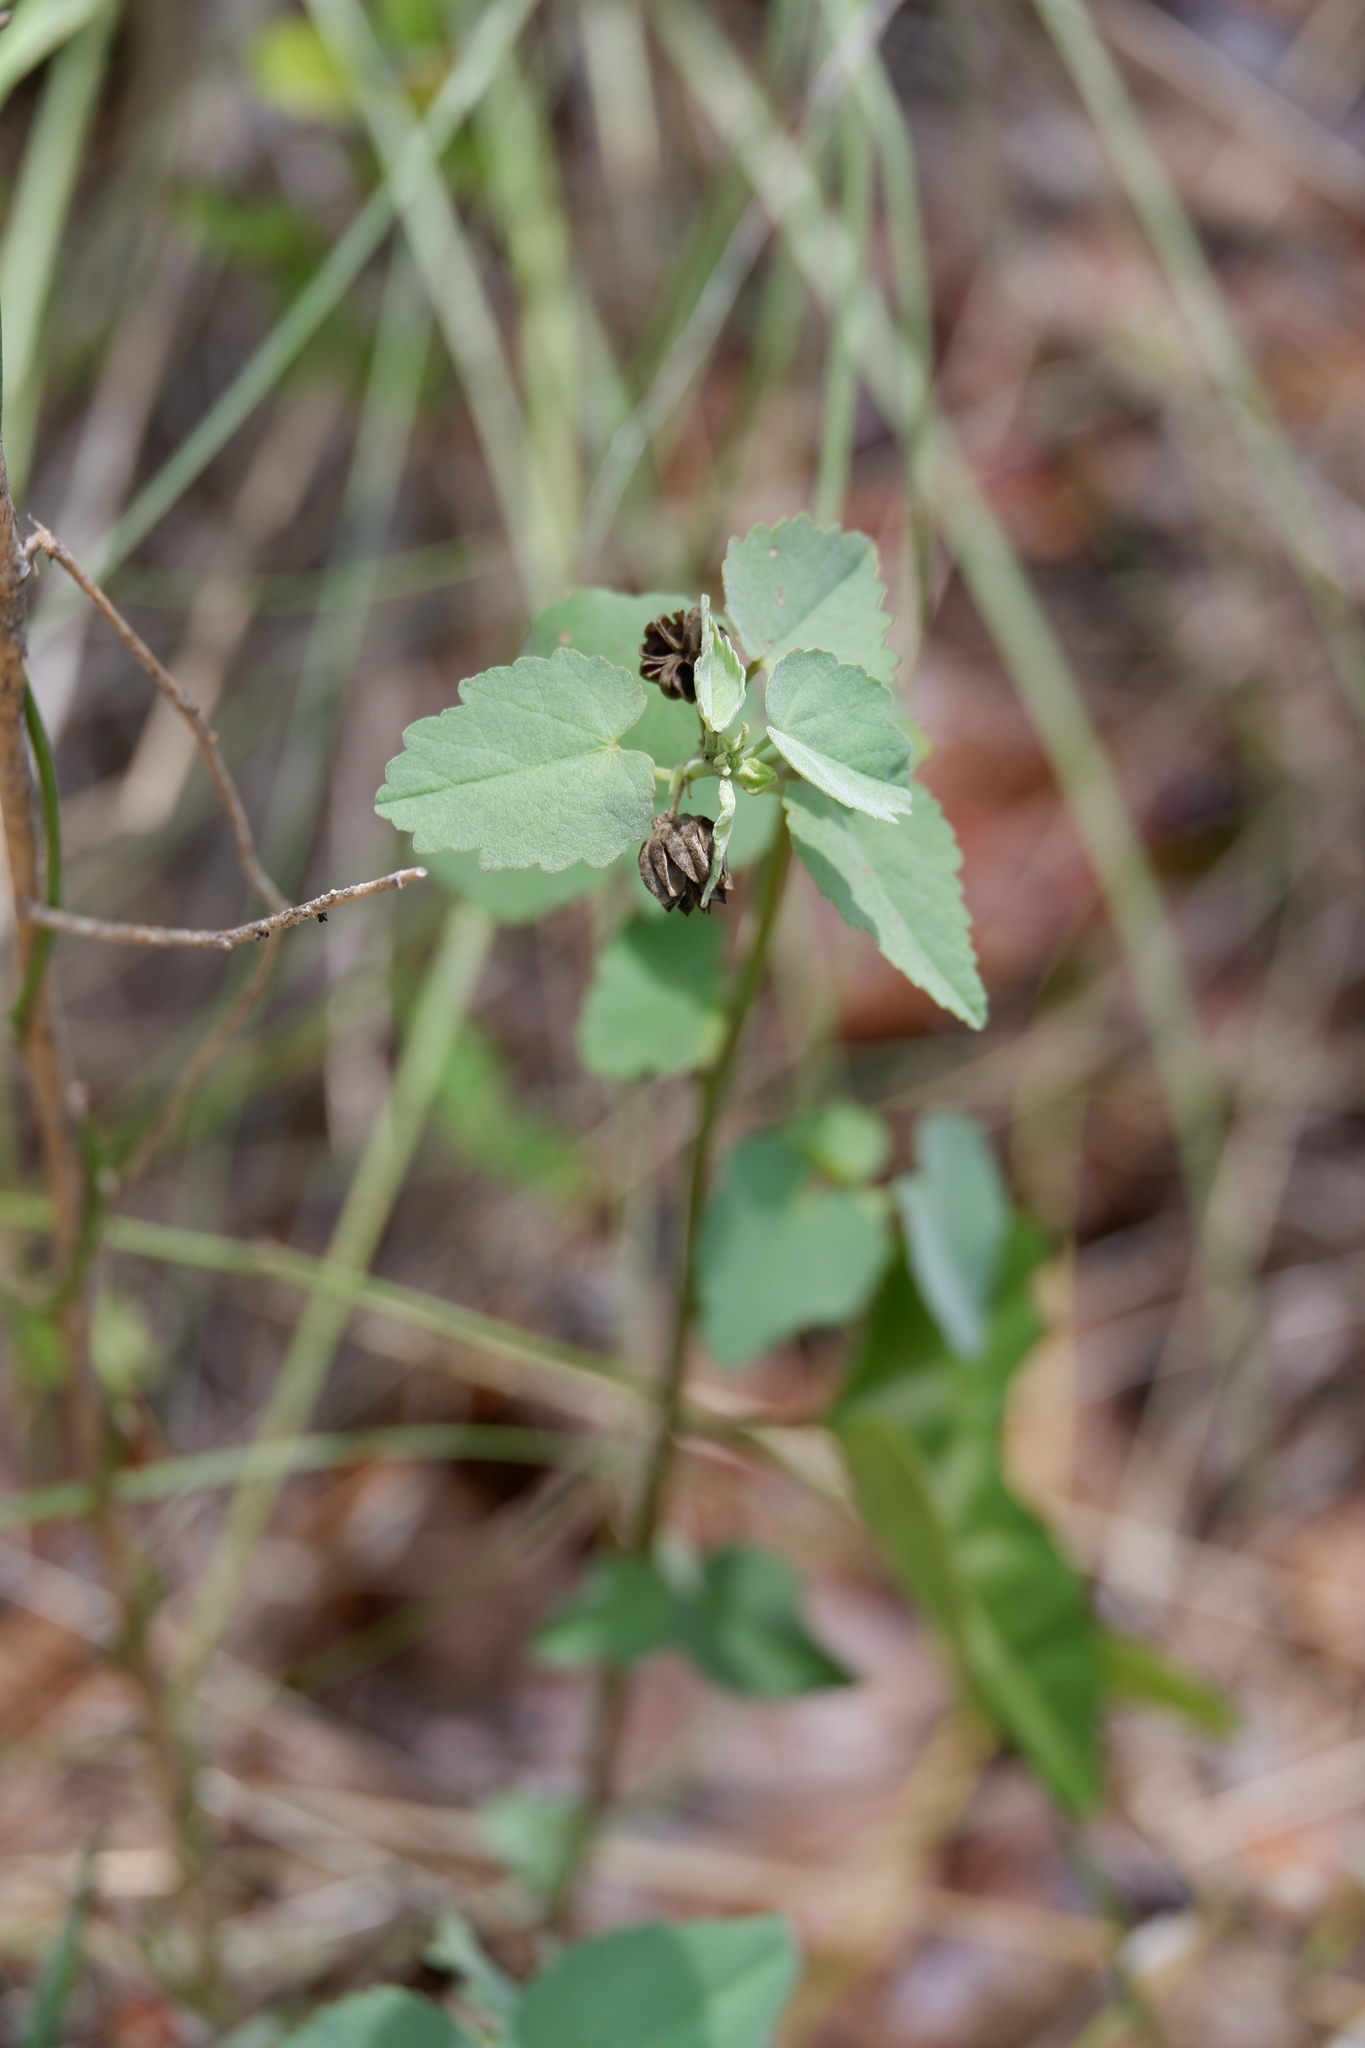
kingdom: Plantae
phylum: Tracheophyta
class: Magnoliopsida
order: Malvales
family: Malvaceae
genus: Abutilon
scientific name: Abutilon fruticosum
